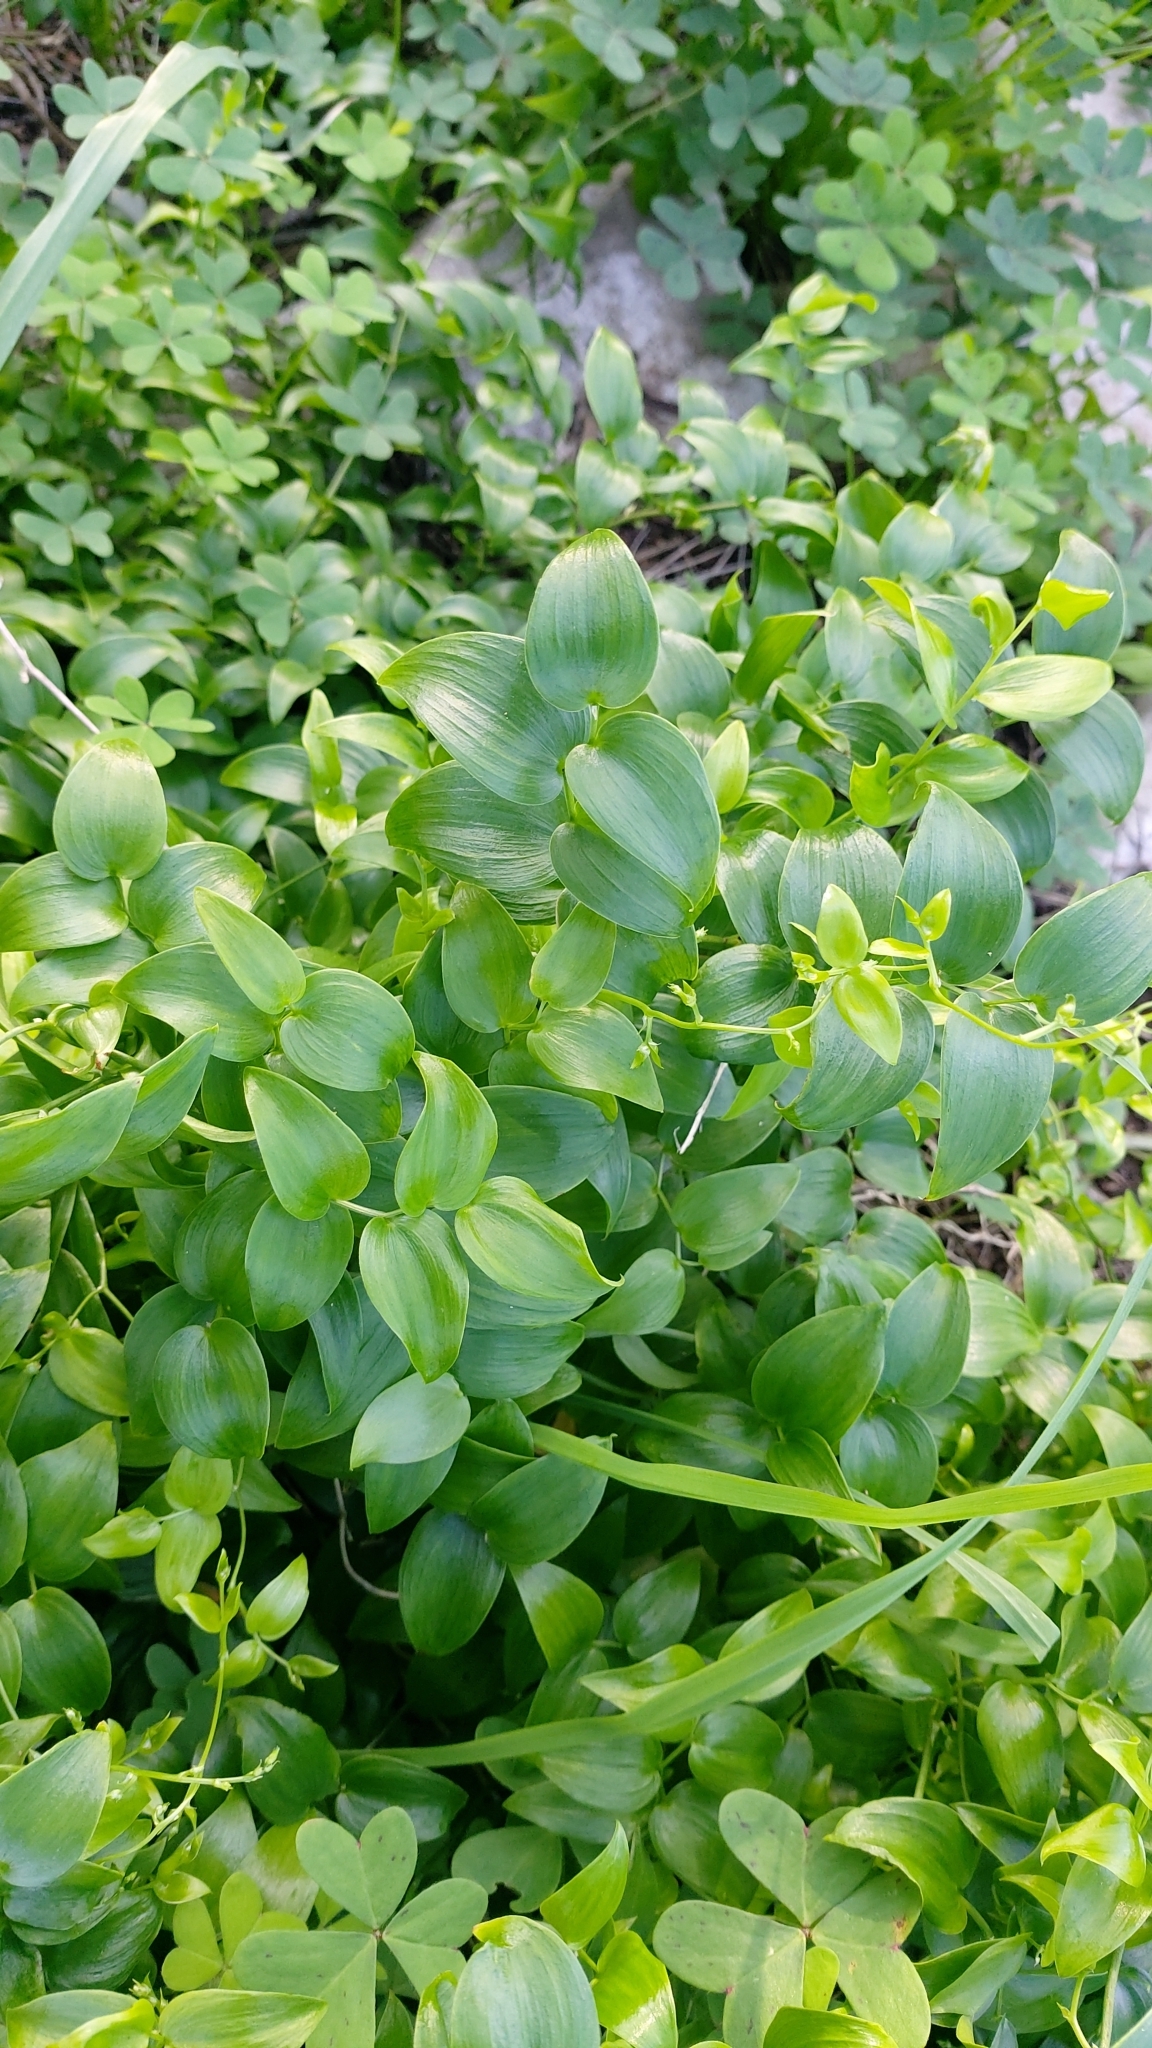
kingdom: Plantae
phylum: Tracheophyta
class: Liliopsida
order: Asparagales
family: Asparagaceae
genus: Asparagus
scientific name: Asparagus asparagoides
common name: African asparagus fern
